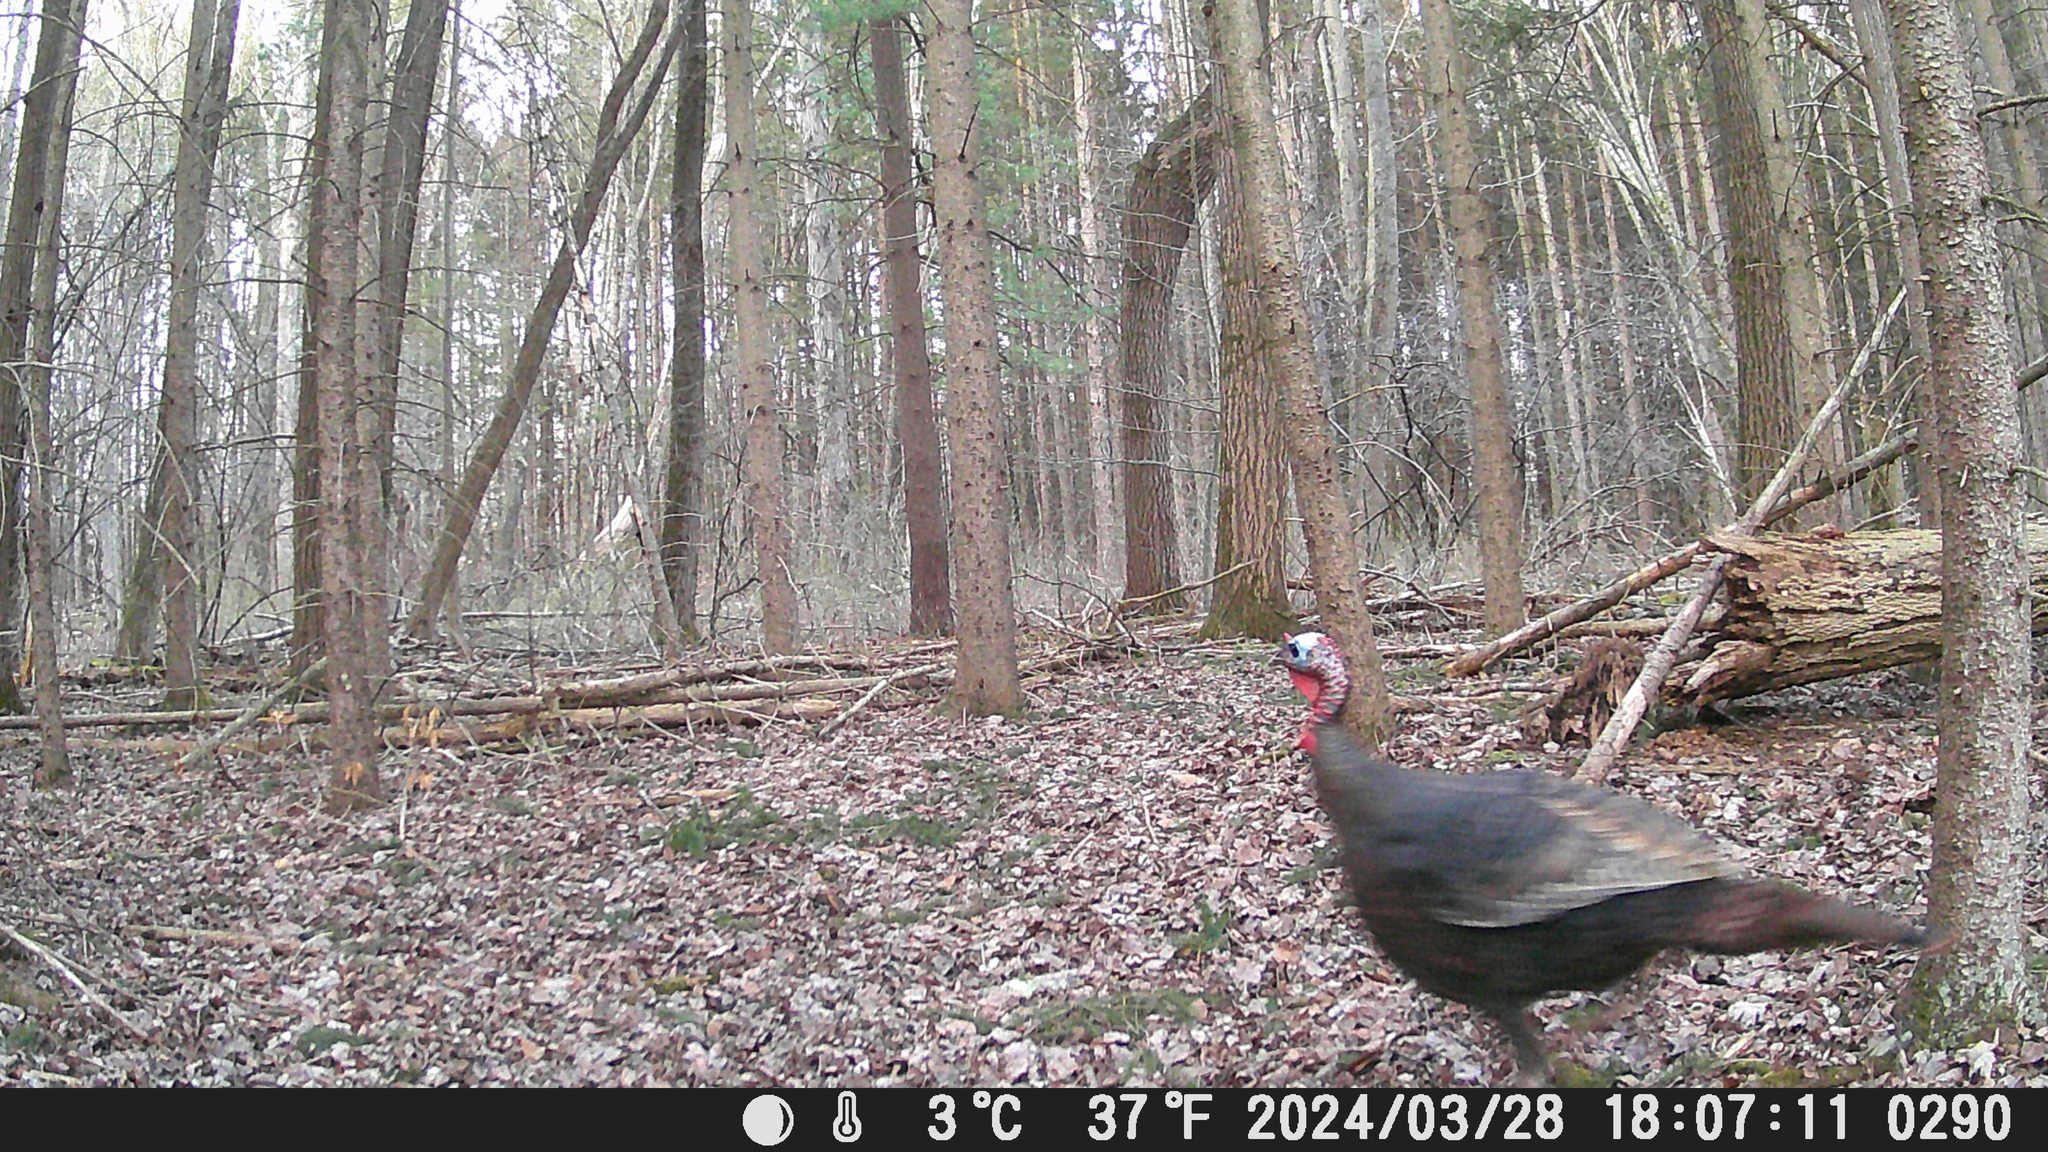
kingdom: Animalia
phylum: Chordata
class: Aves
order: Galliformes
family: Phasianidae
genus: Meleagris
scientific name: Meleagris gallopavo
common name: Wild turkey
